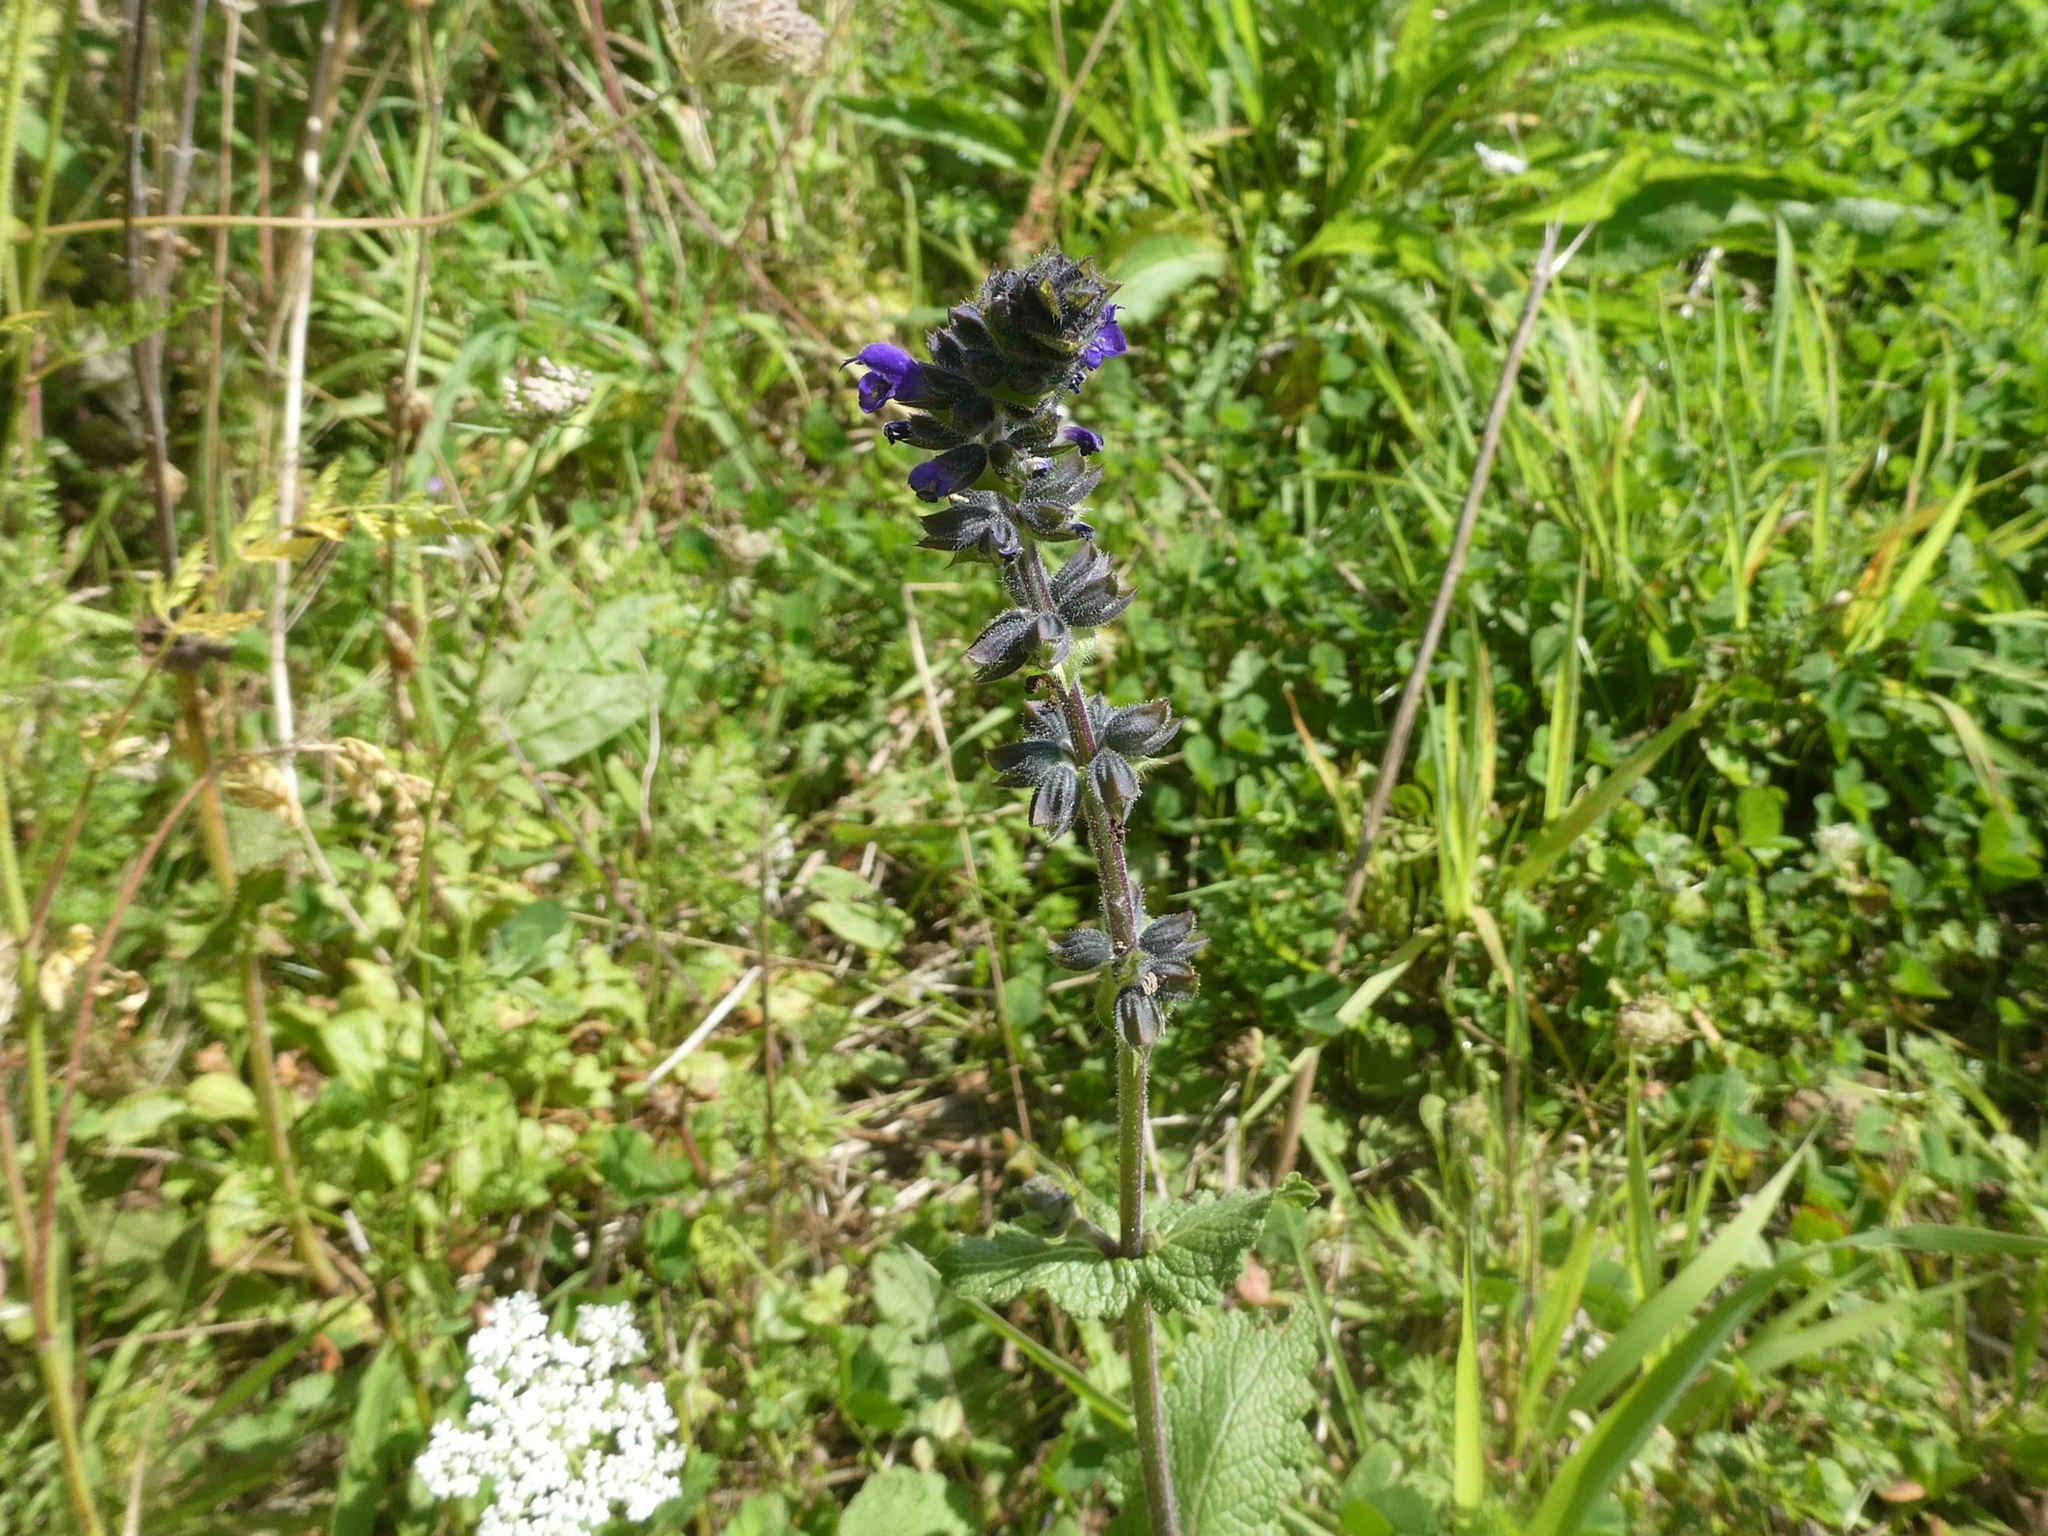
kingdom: Plantae
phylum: Tracheophyta
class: Magnoliopsida
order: Lamiales
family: Lamiaceae
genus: Salvia
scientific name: Salvia verbenaca
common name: Wild clary
